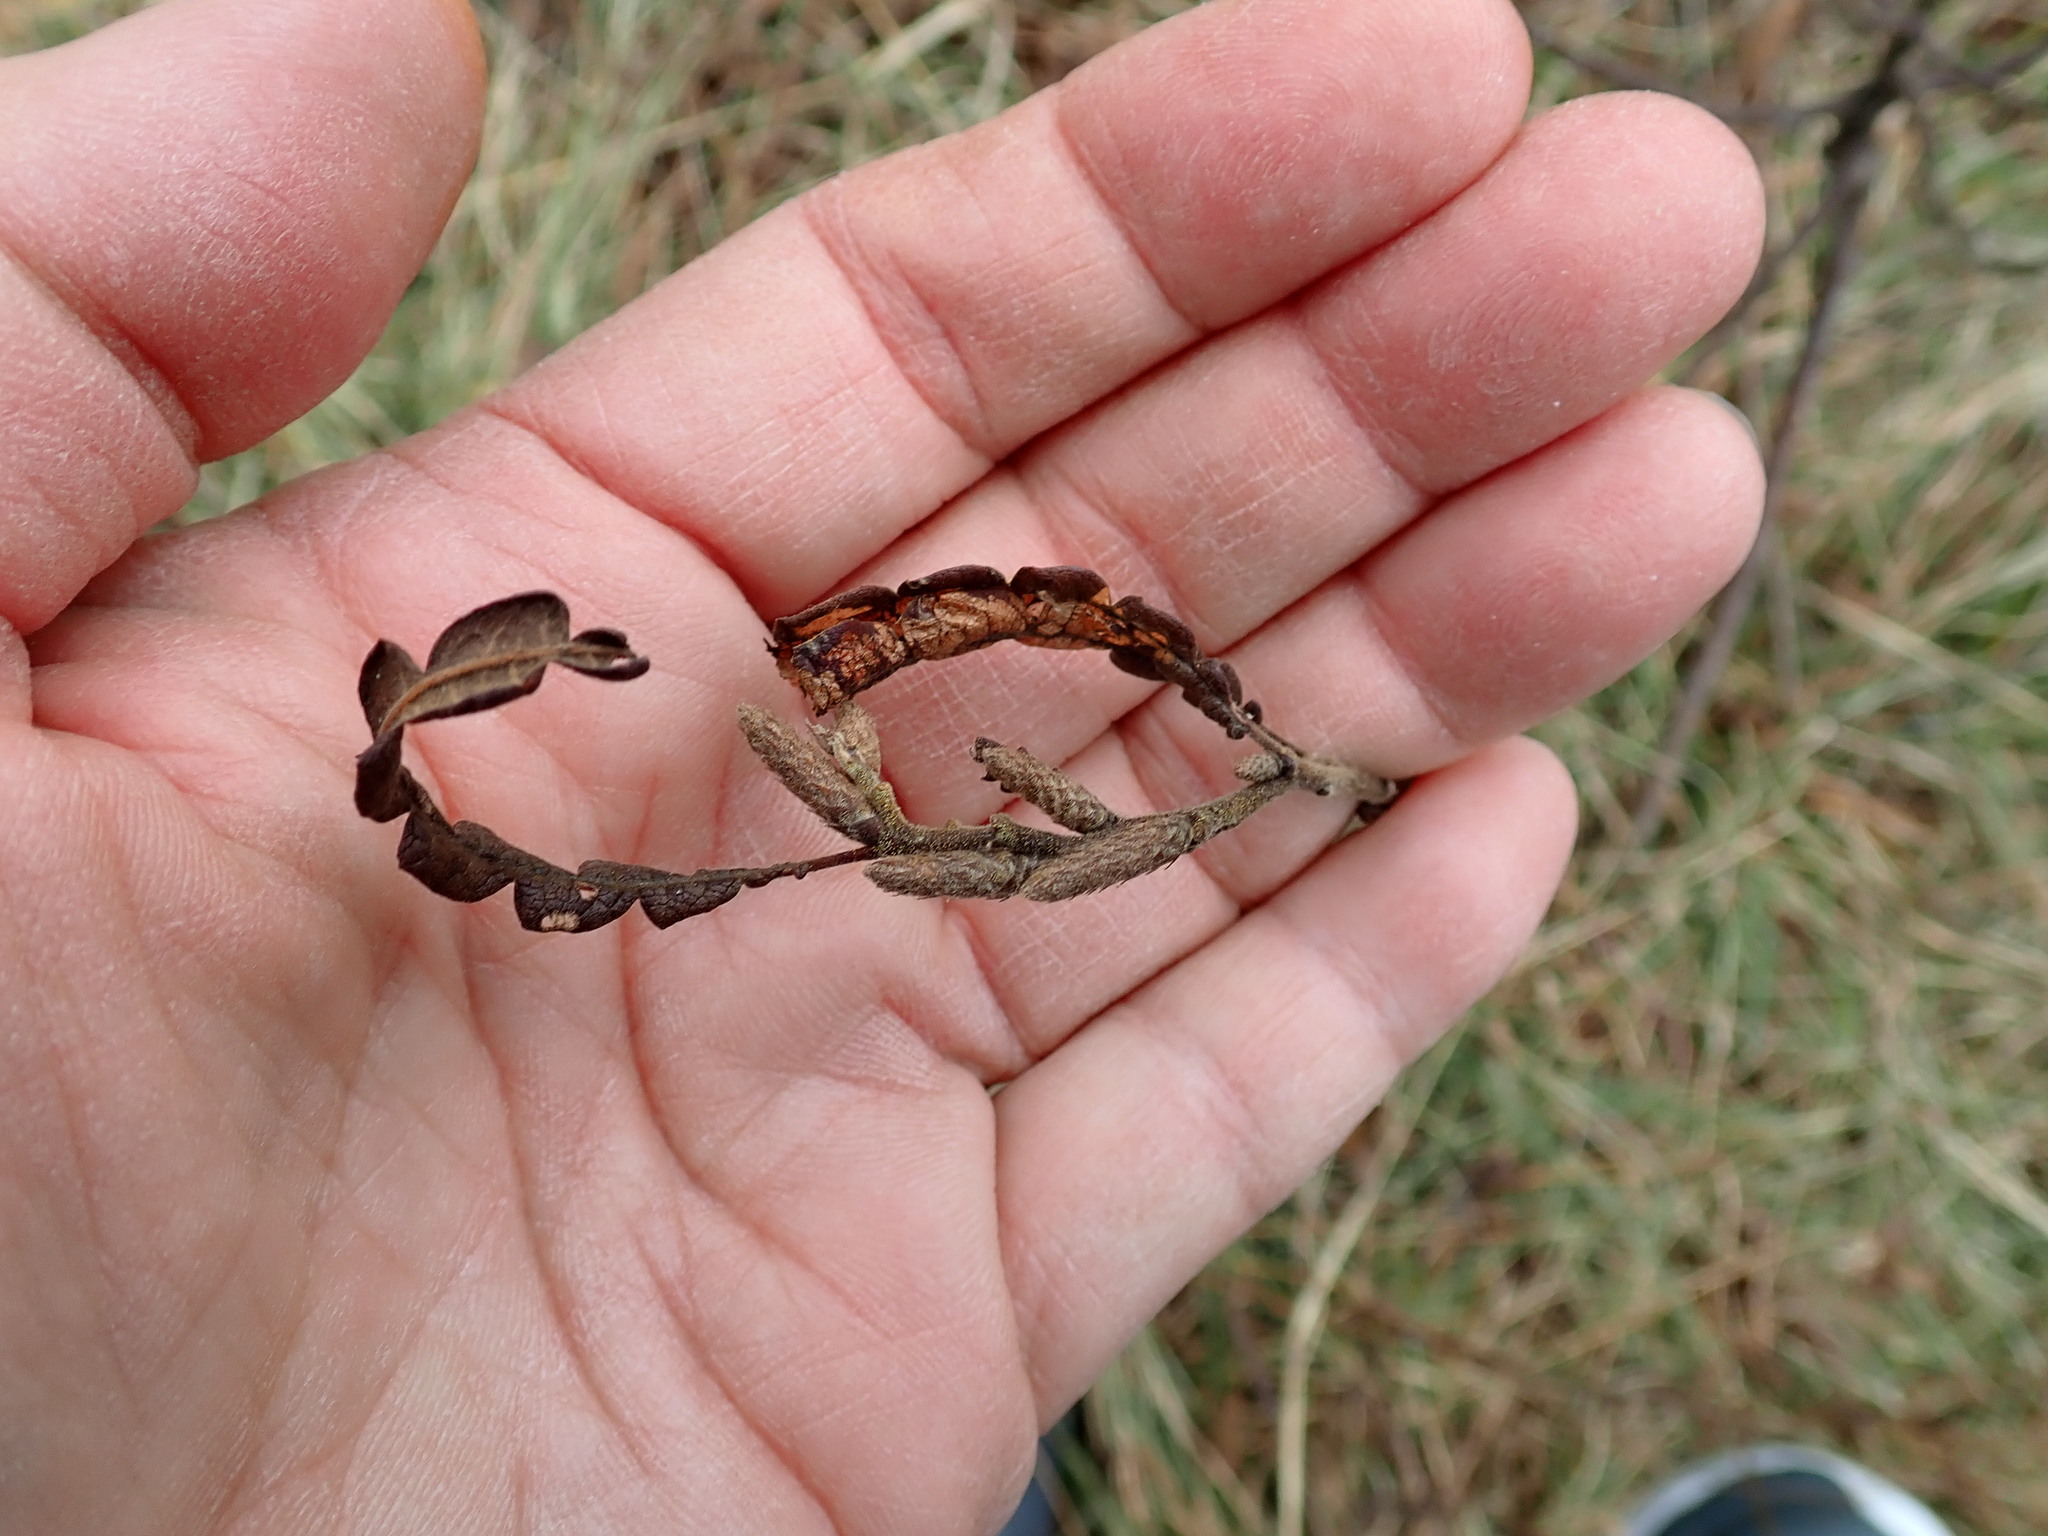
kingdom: Plantae
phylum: Tracheophyta
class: Magnoliopsida
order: Fagales
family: Myricaceae
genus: Comptonia
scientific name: Comptonia peregrina
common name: Sweet-fern
